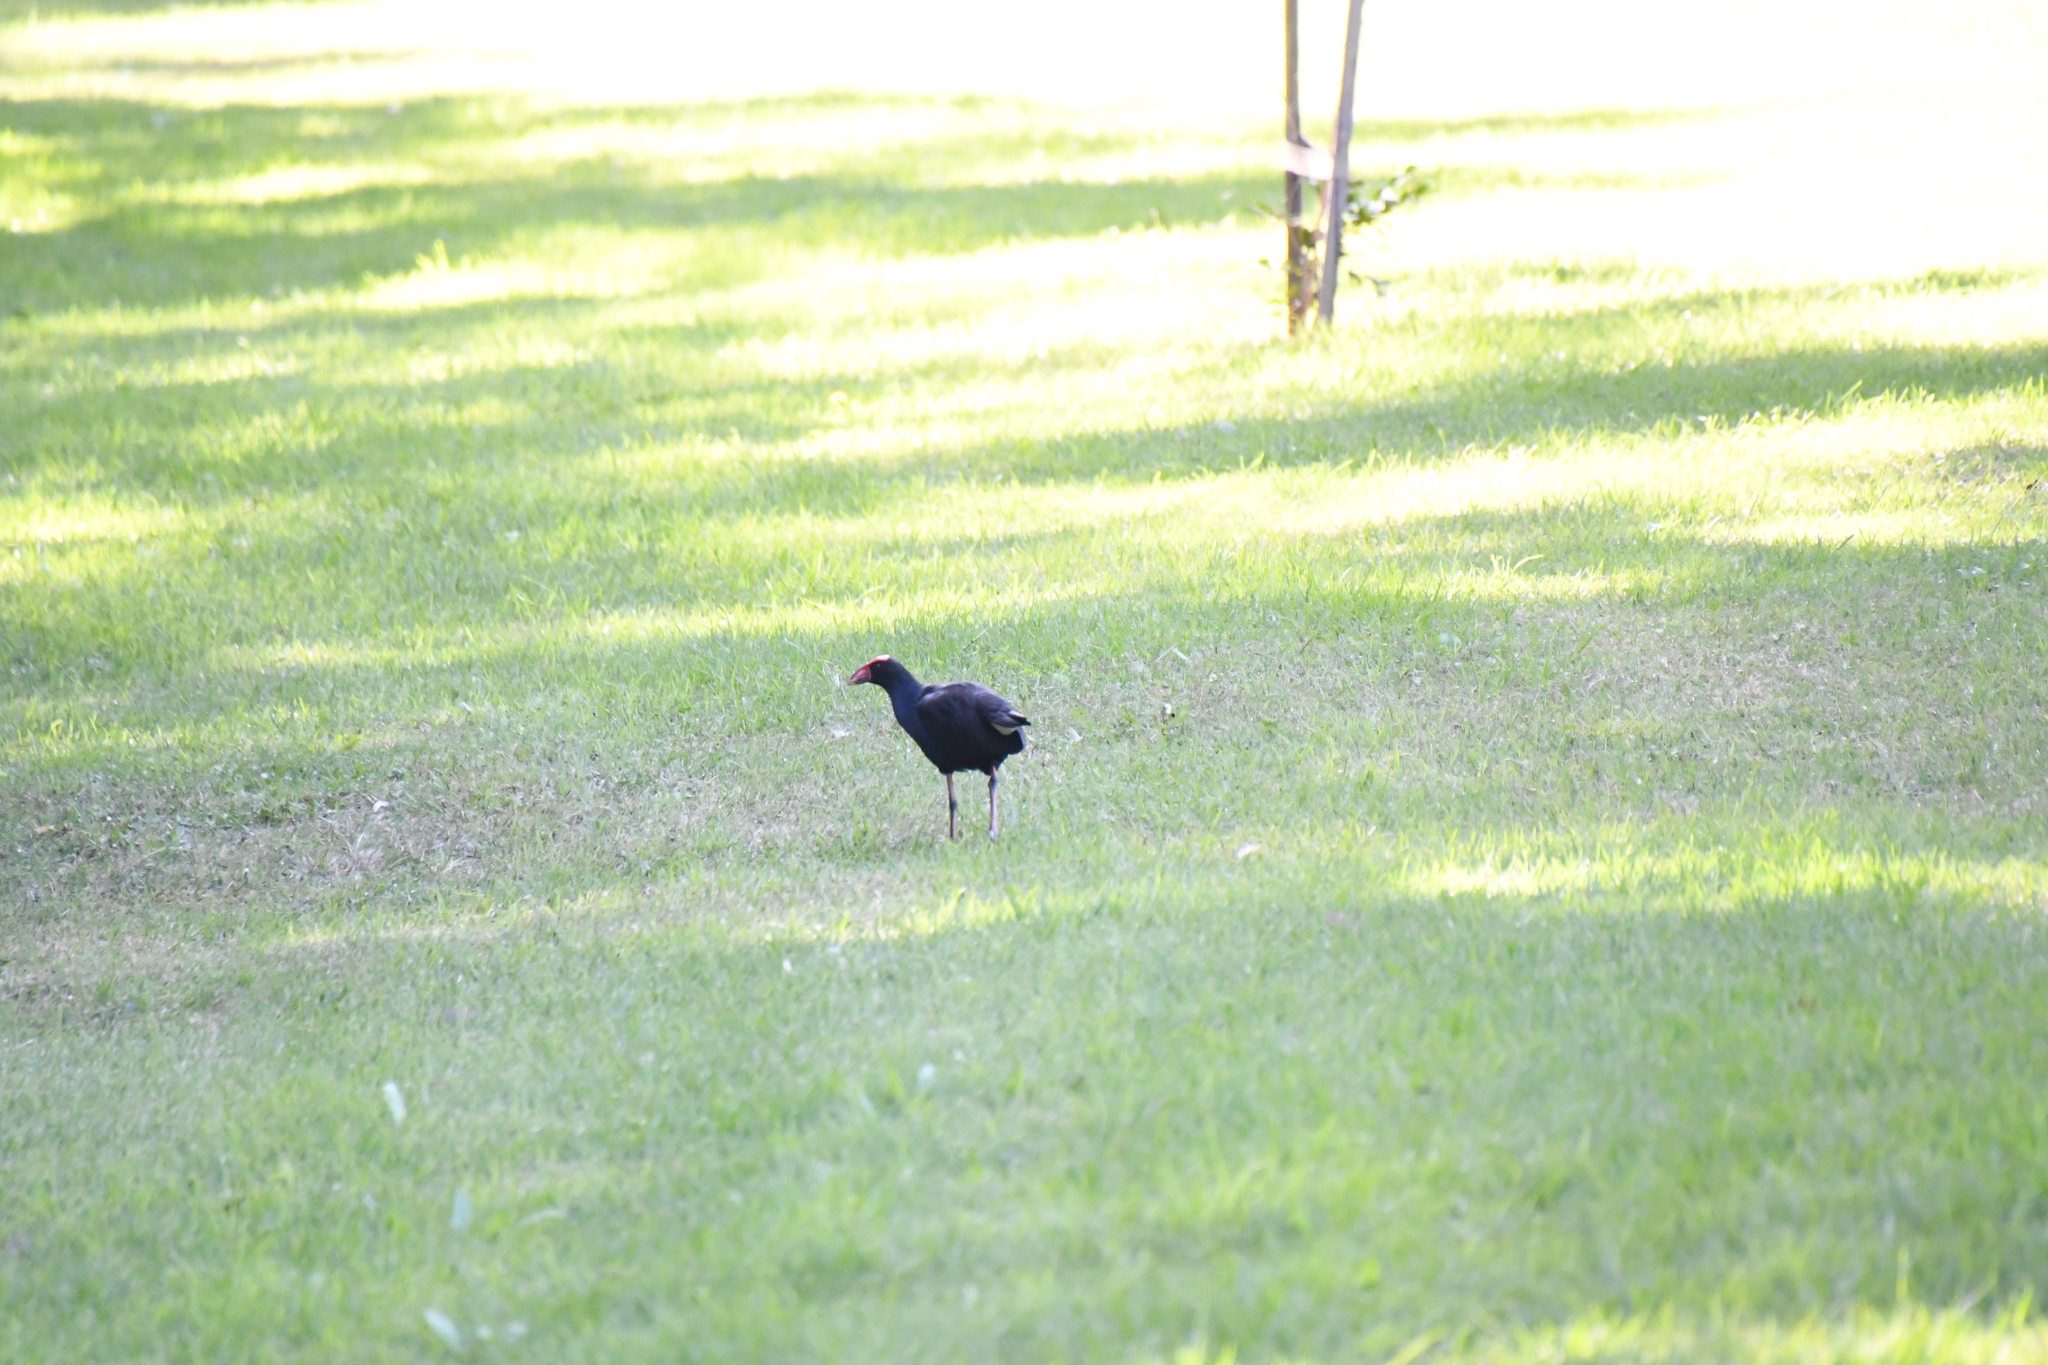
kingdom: Animalia
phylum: Chordata
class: Aves
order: Gruiformes
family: Rallidae
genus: Porphyrio
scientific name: Porphyrio melanotus
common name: Australasian swamphen
